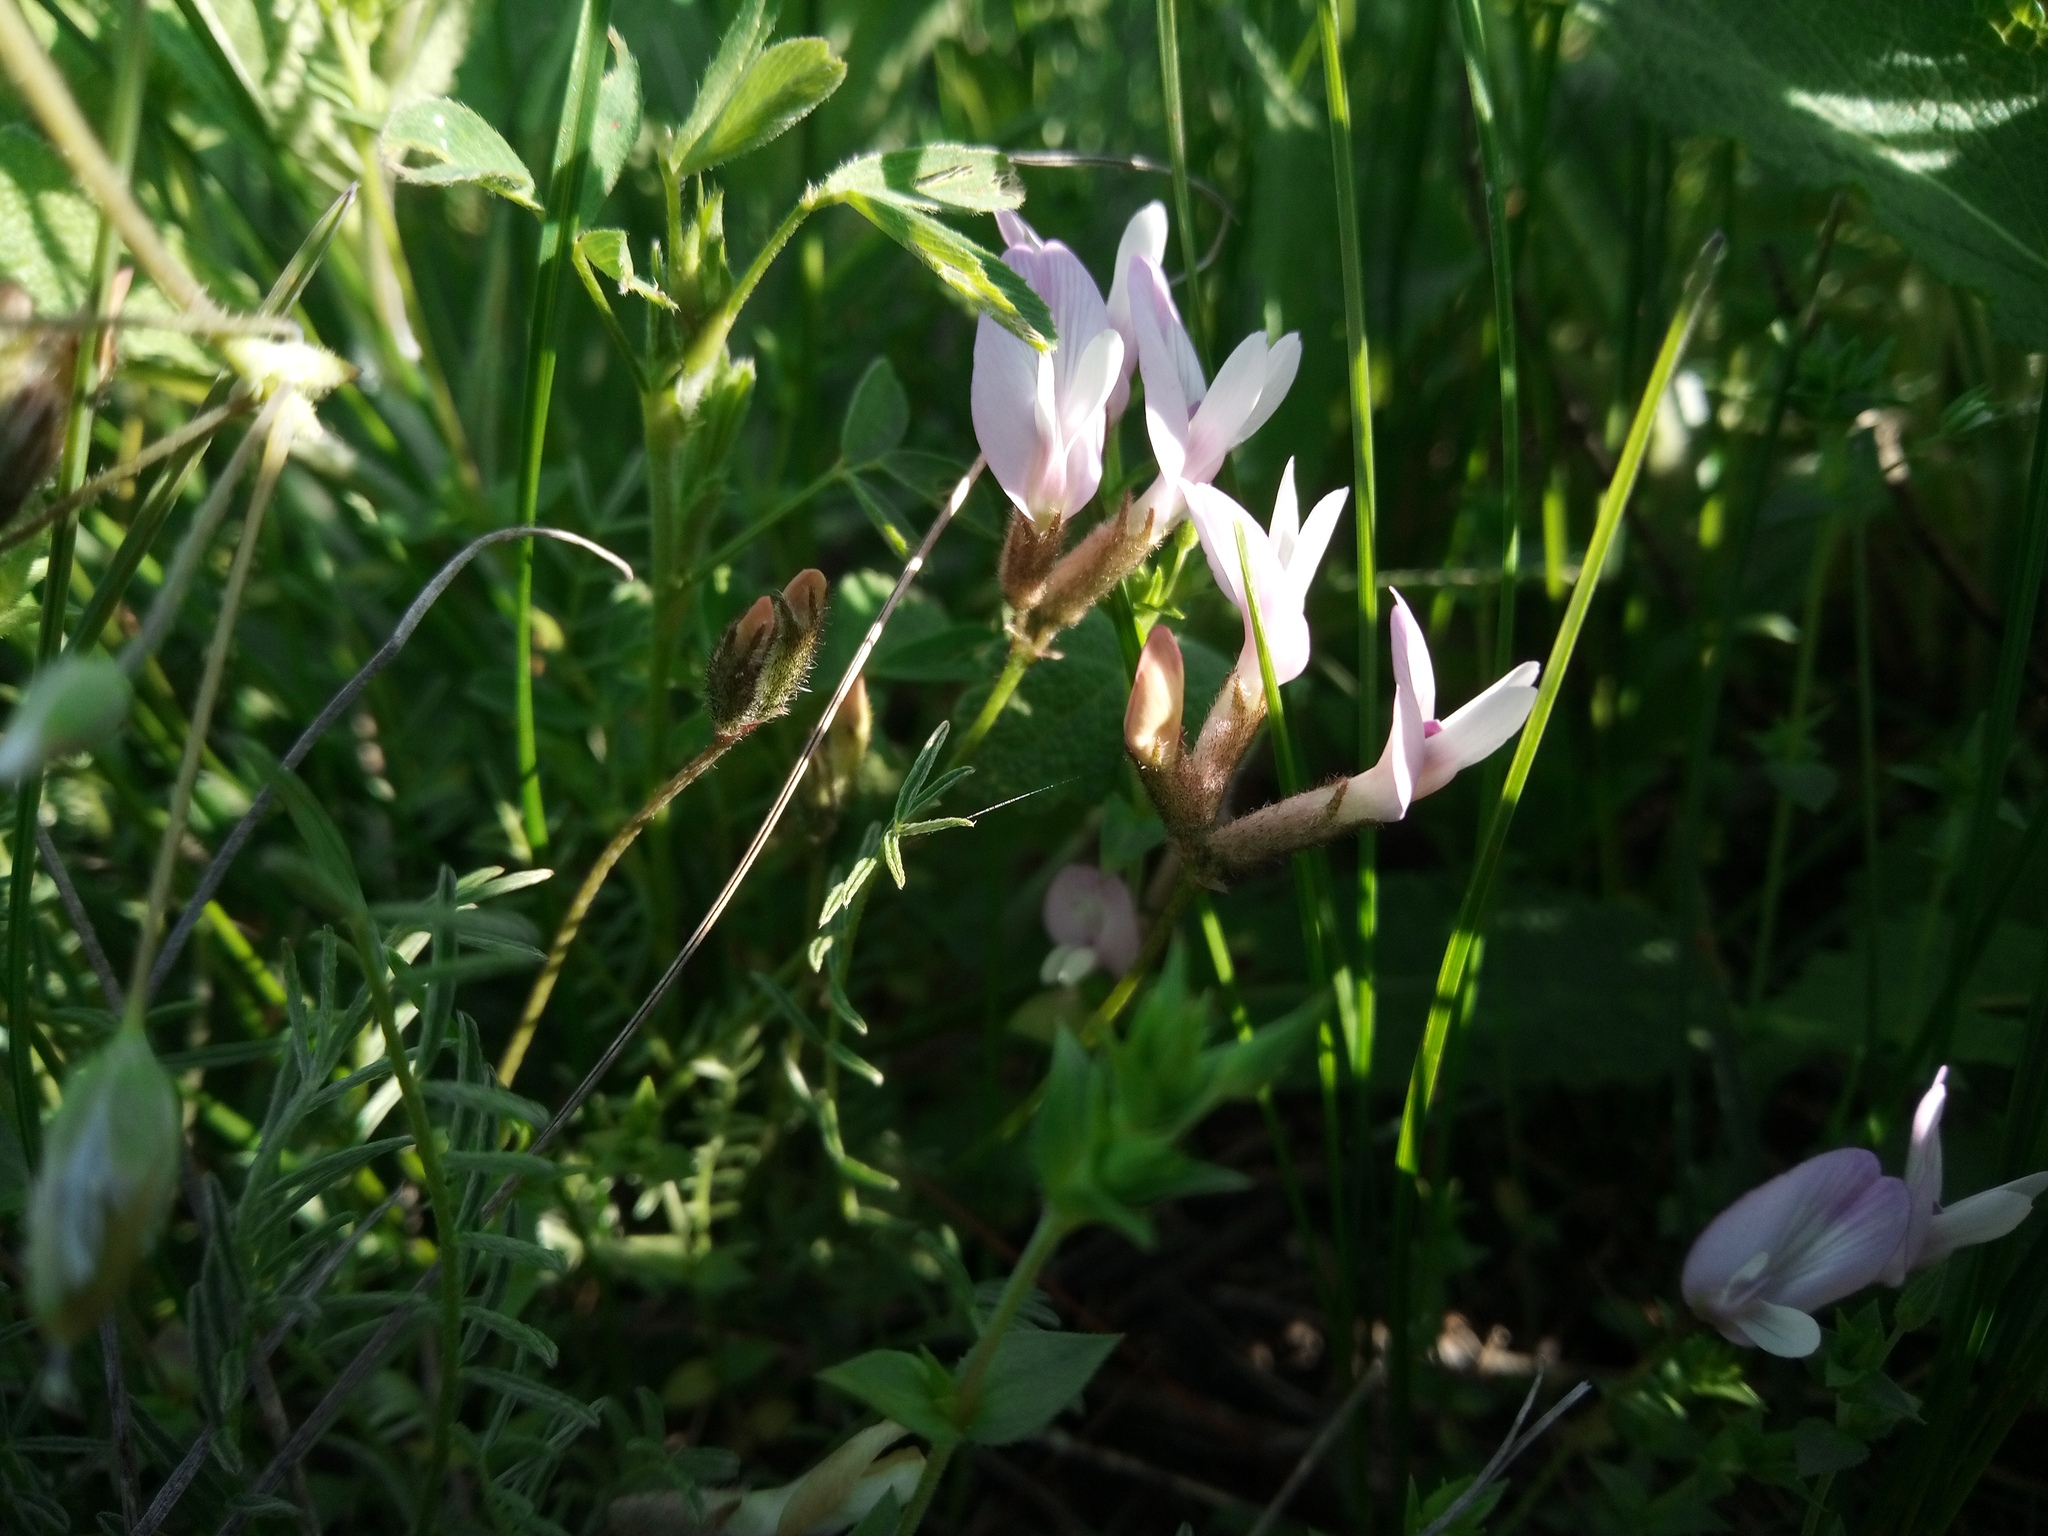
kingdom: Plantae
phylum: Tracheophyta
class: Magnoliopsida
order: Fabales
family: Fabaceae
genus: Astragalus
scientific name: Astragalus corniculatus
